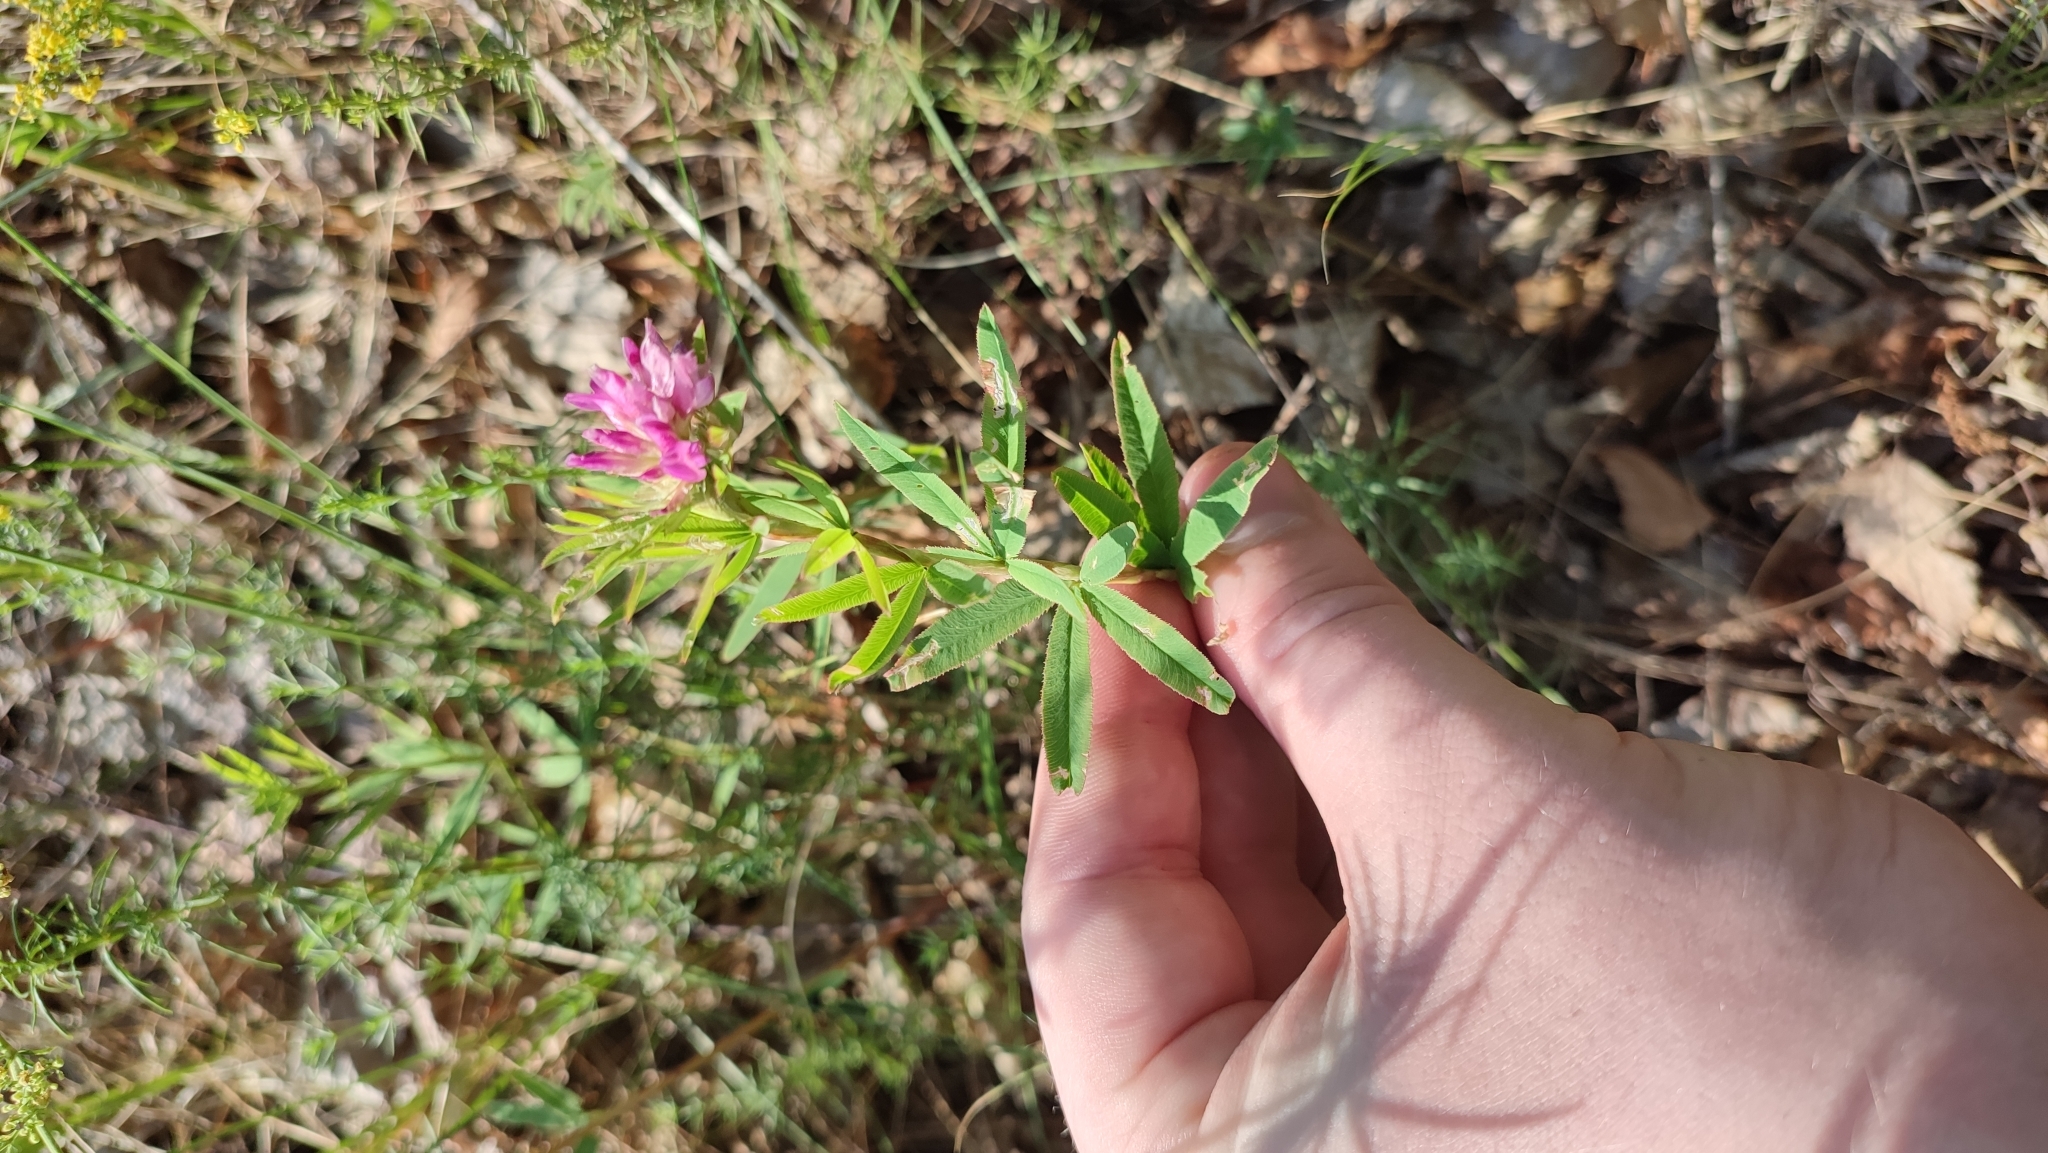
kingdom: Plantae
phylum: Tracheophyta
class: Magnoliopsida
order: Fabales
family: Fabaceae
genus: Trifolium
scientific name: Trifolium lupinaster
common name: Lupine clover
